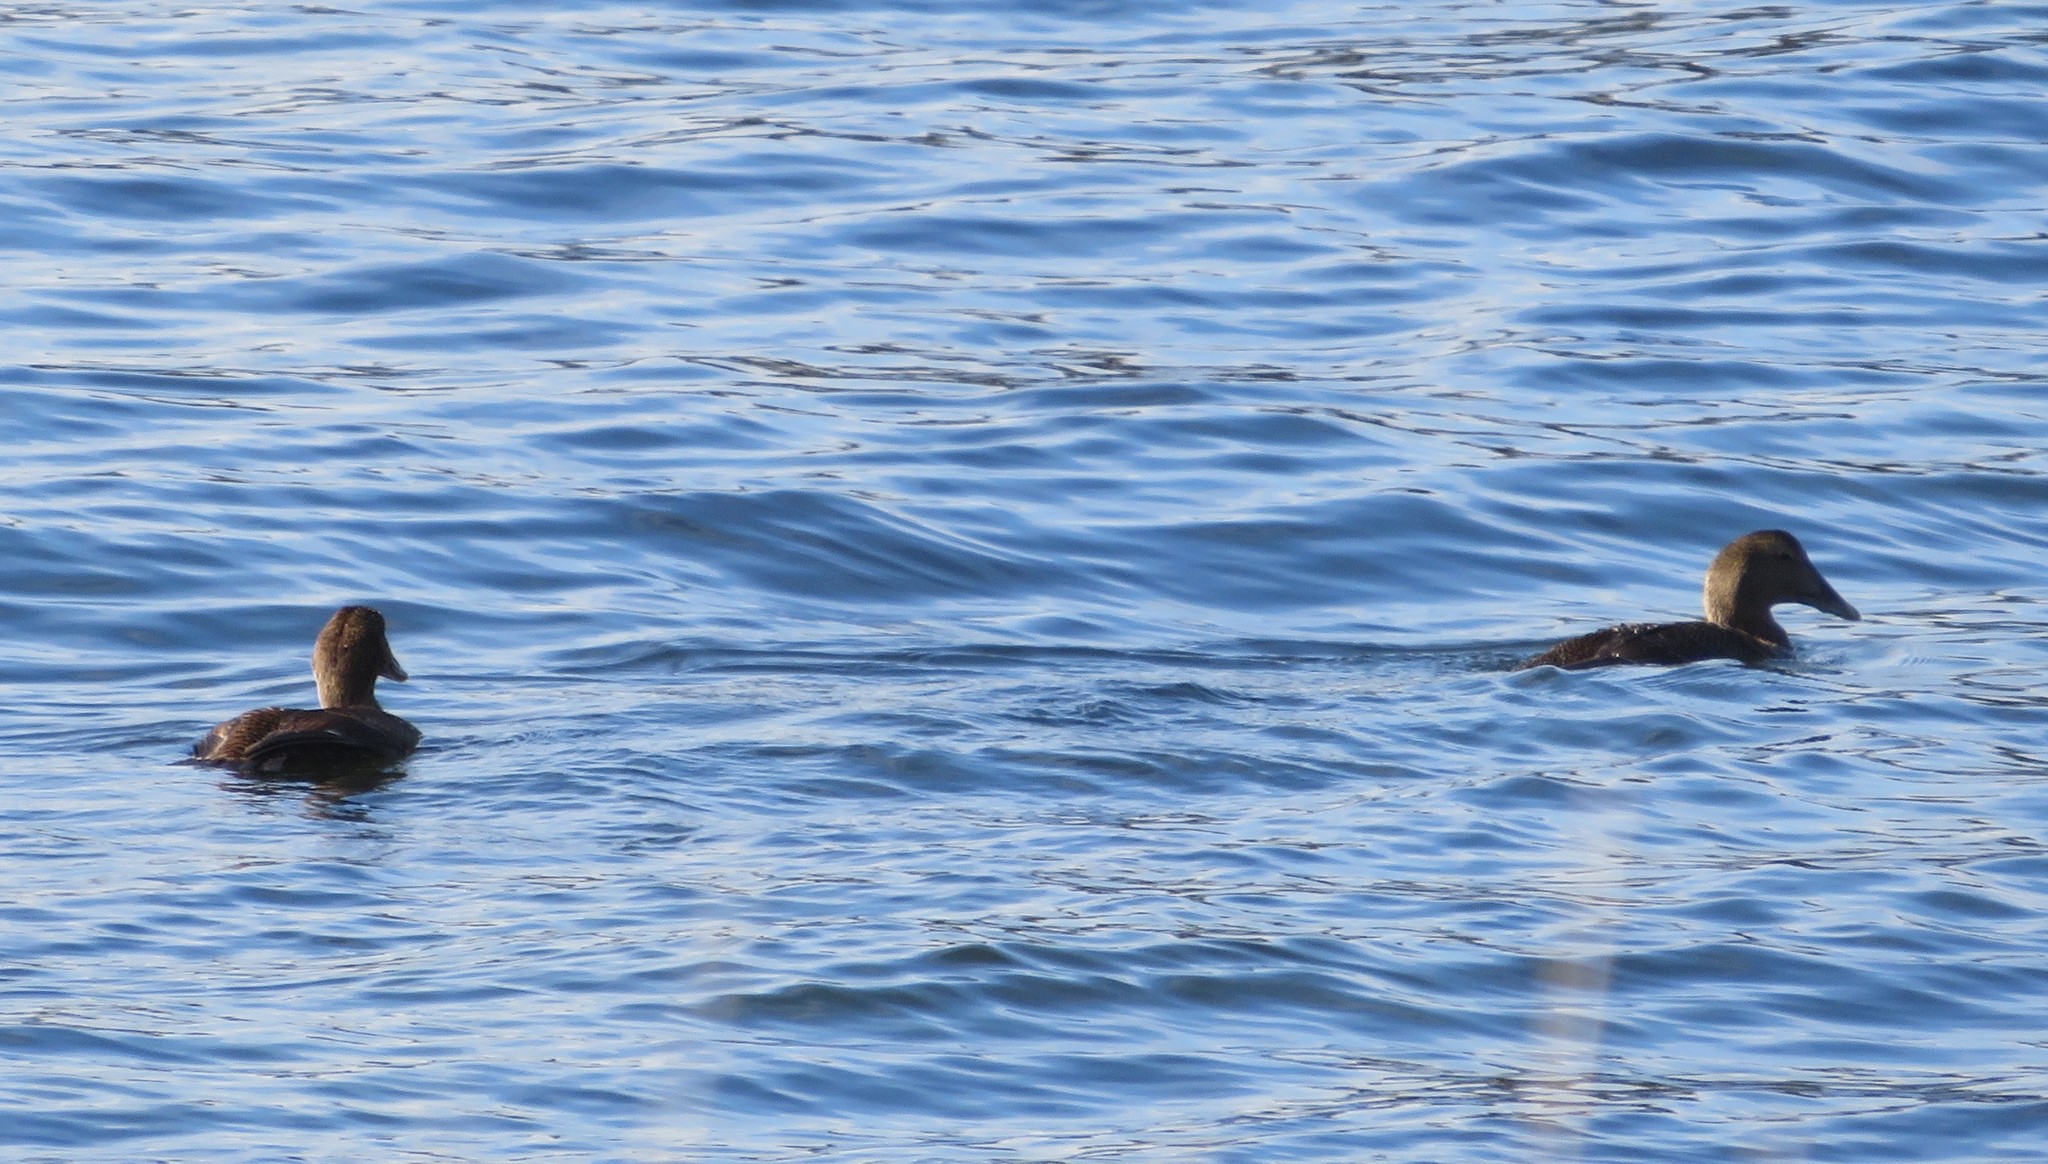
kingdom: Animalia
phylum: Chordata
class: Aves
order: Anseriformes
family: Anatidae
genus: Somateria
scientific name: Somateria mollissima
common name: Common eider
